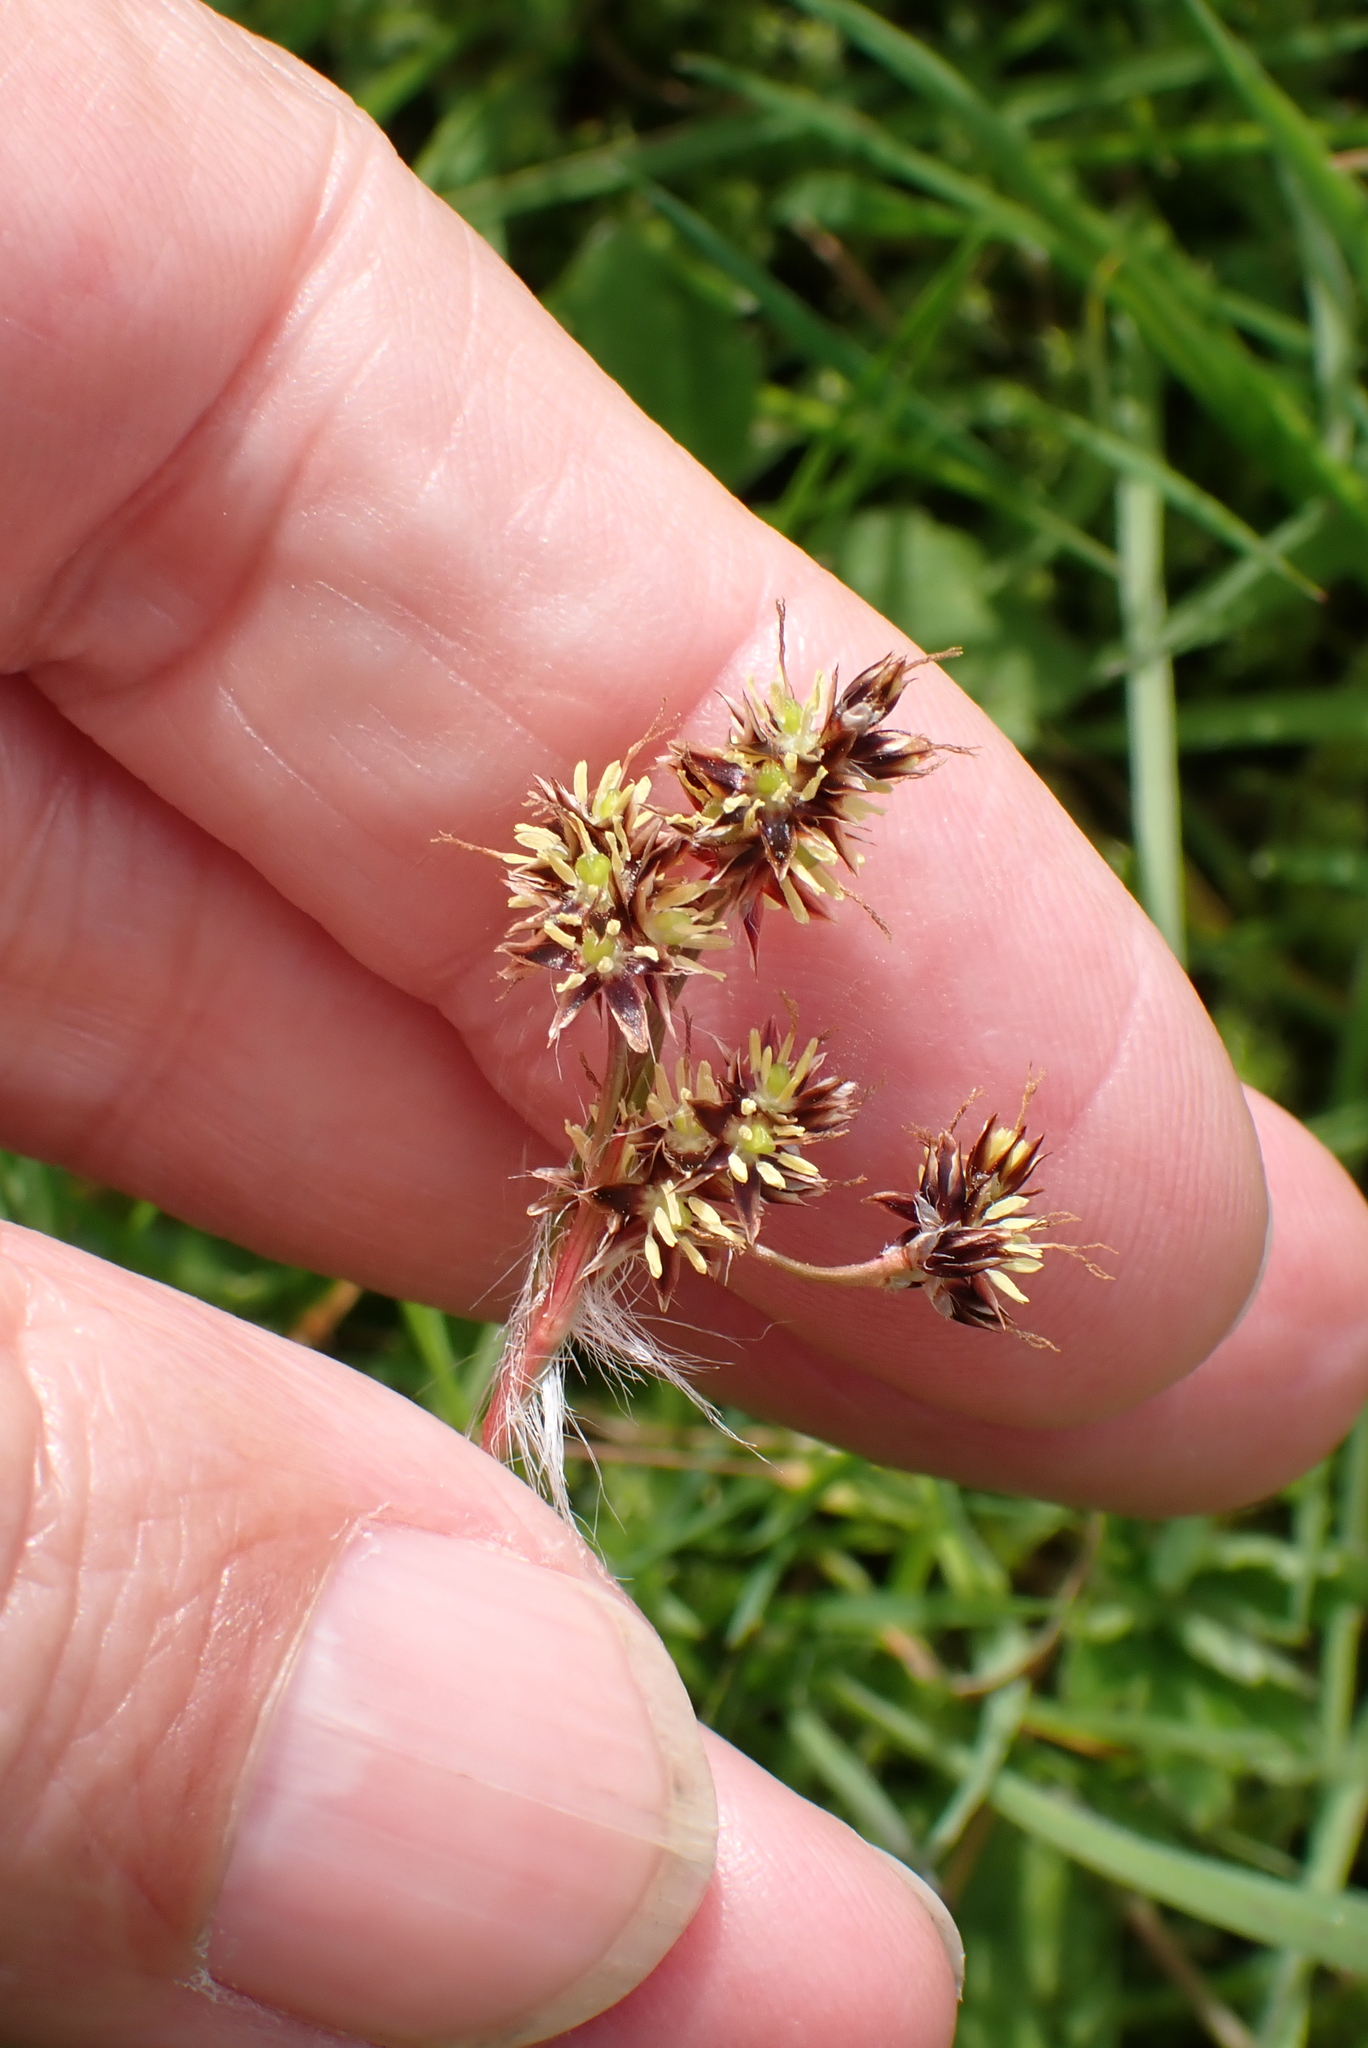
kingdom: Plantae
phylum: Tracheophyta
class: Liliopsida
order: Poales
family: Juncaceae
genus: Luzula
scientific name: Luzula campestris
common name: Field wood-rush
